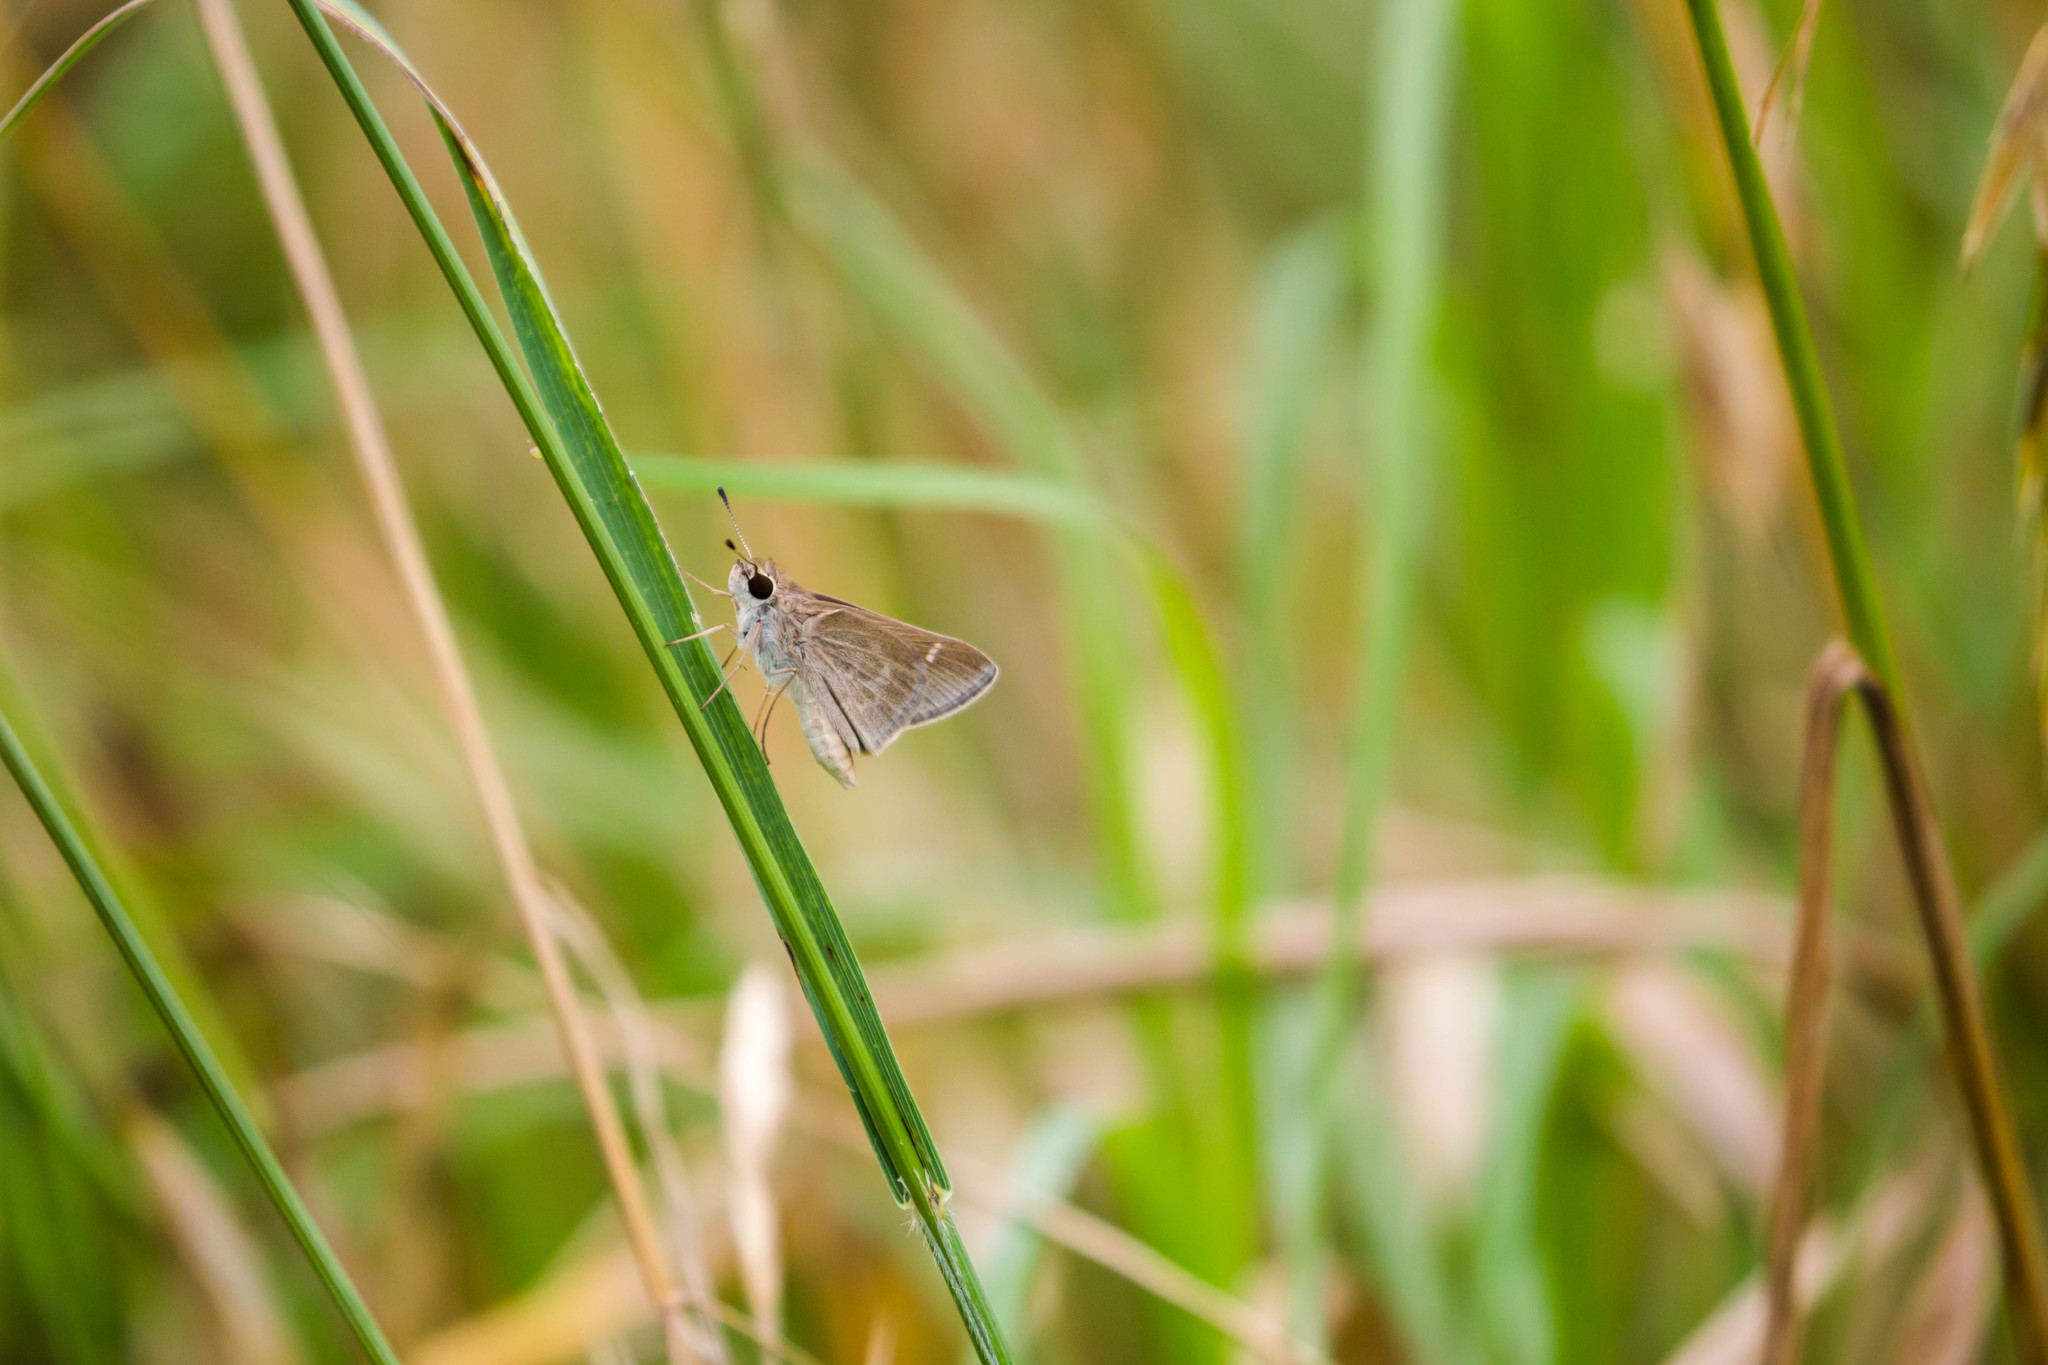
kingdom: Animalia
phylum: Arthropoda
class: Insecta
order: Lepidoptera
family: Hesperiidae
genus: Lerodea
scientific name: Lerodea eufala
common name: Eufala skipper
